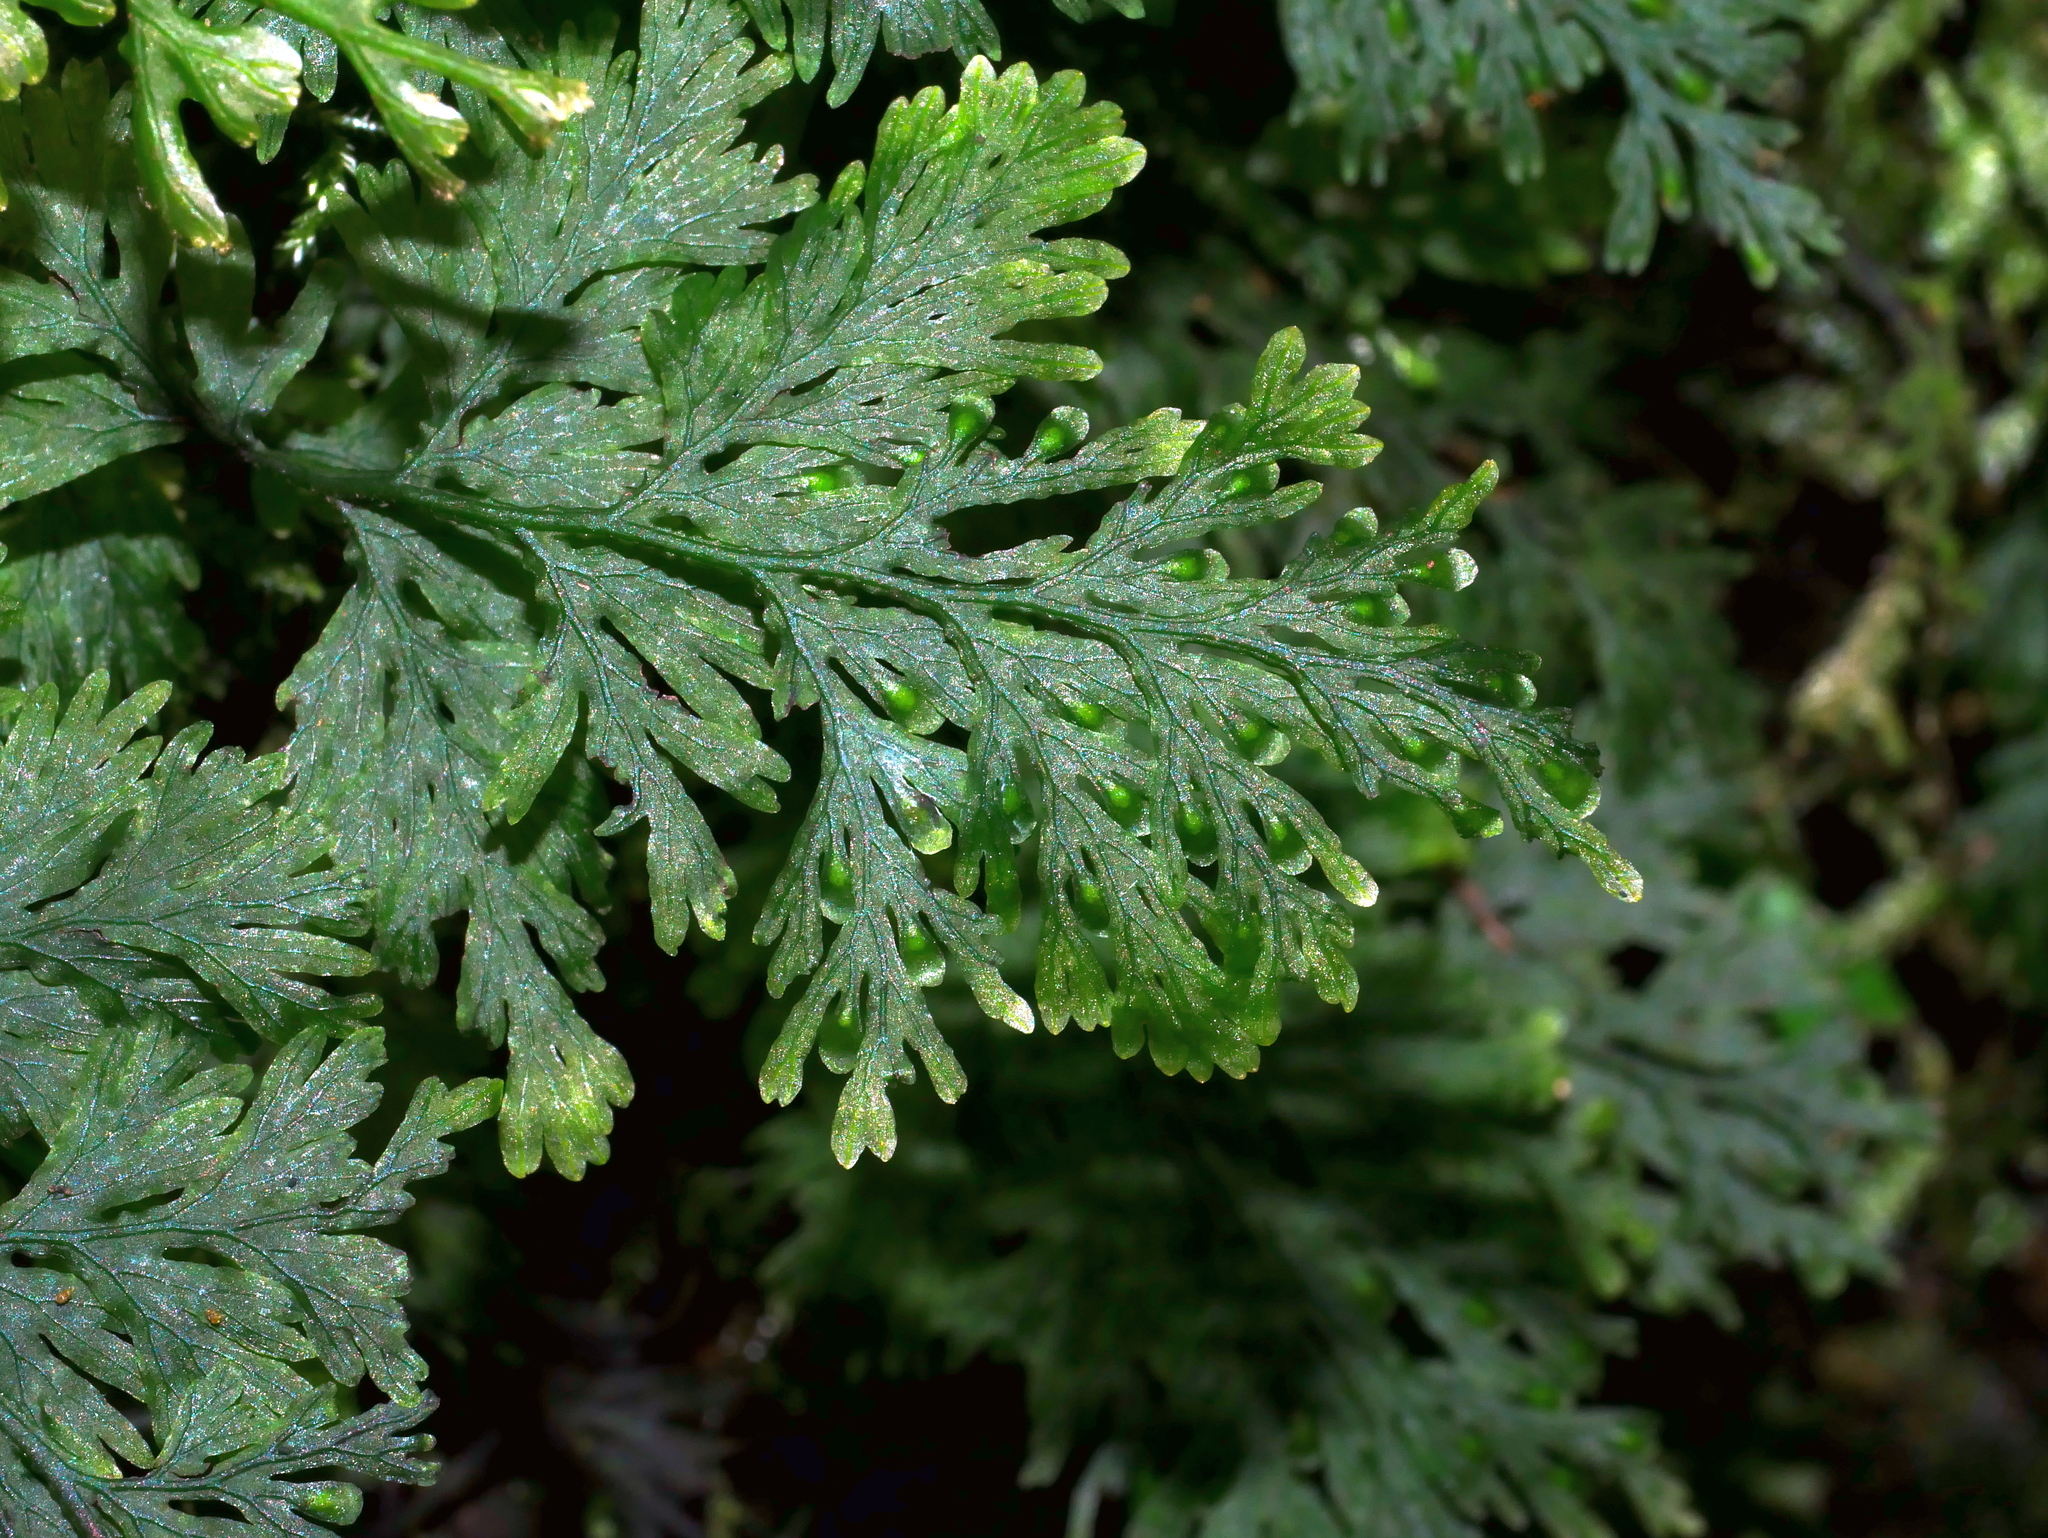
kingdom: Plantae
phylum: Tracheophyta
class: Polypodiopsida
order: Hymenophyllales
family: Hymenophyllaceae
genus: Crepidomanes
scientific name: Crepidomanes latealatum
